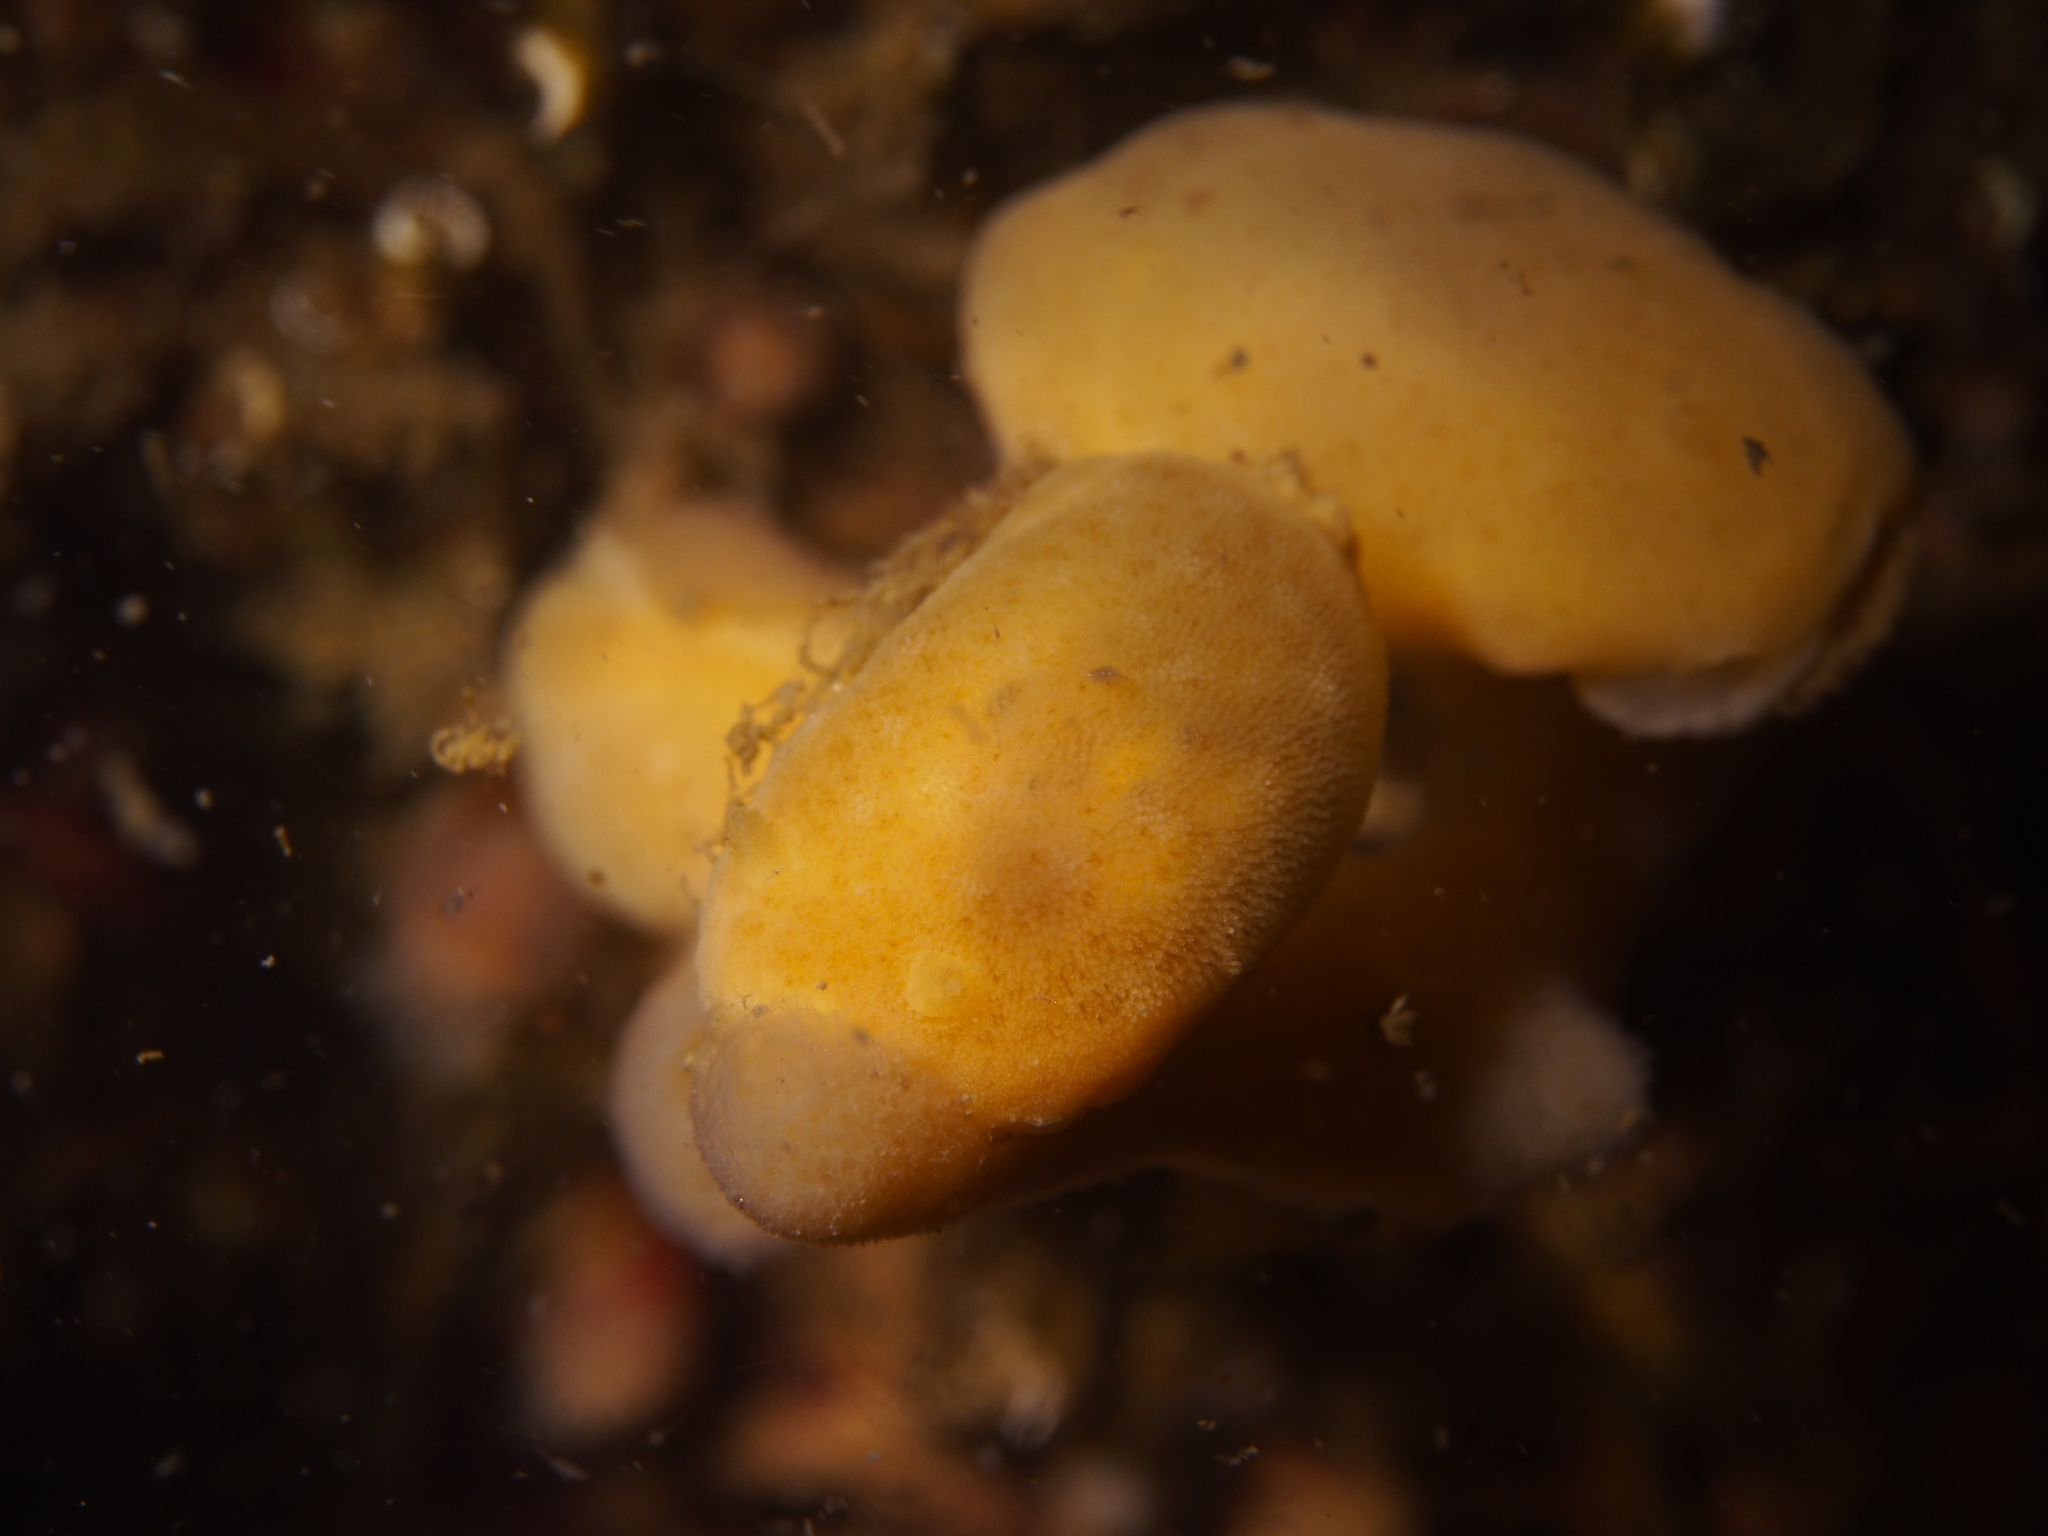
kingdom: Animalia
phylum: Mollusca
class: Gastropoda
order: Nudibranchia
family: Discodorididae
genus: Jorunna
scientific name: Jorunna tomentosa
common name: Grey sea slug
